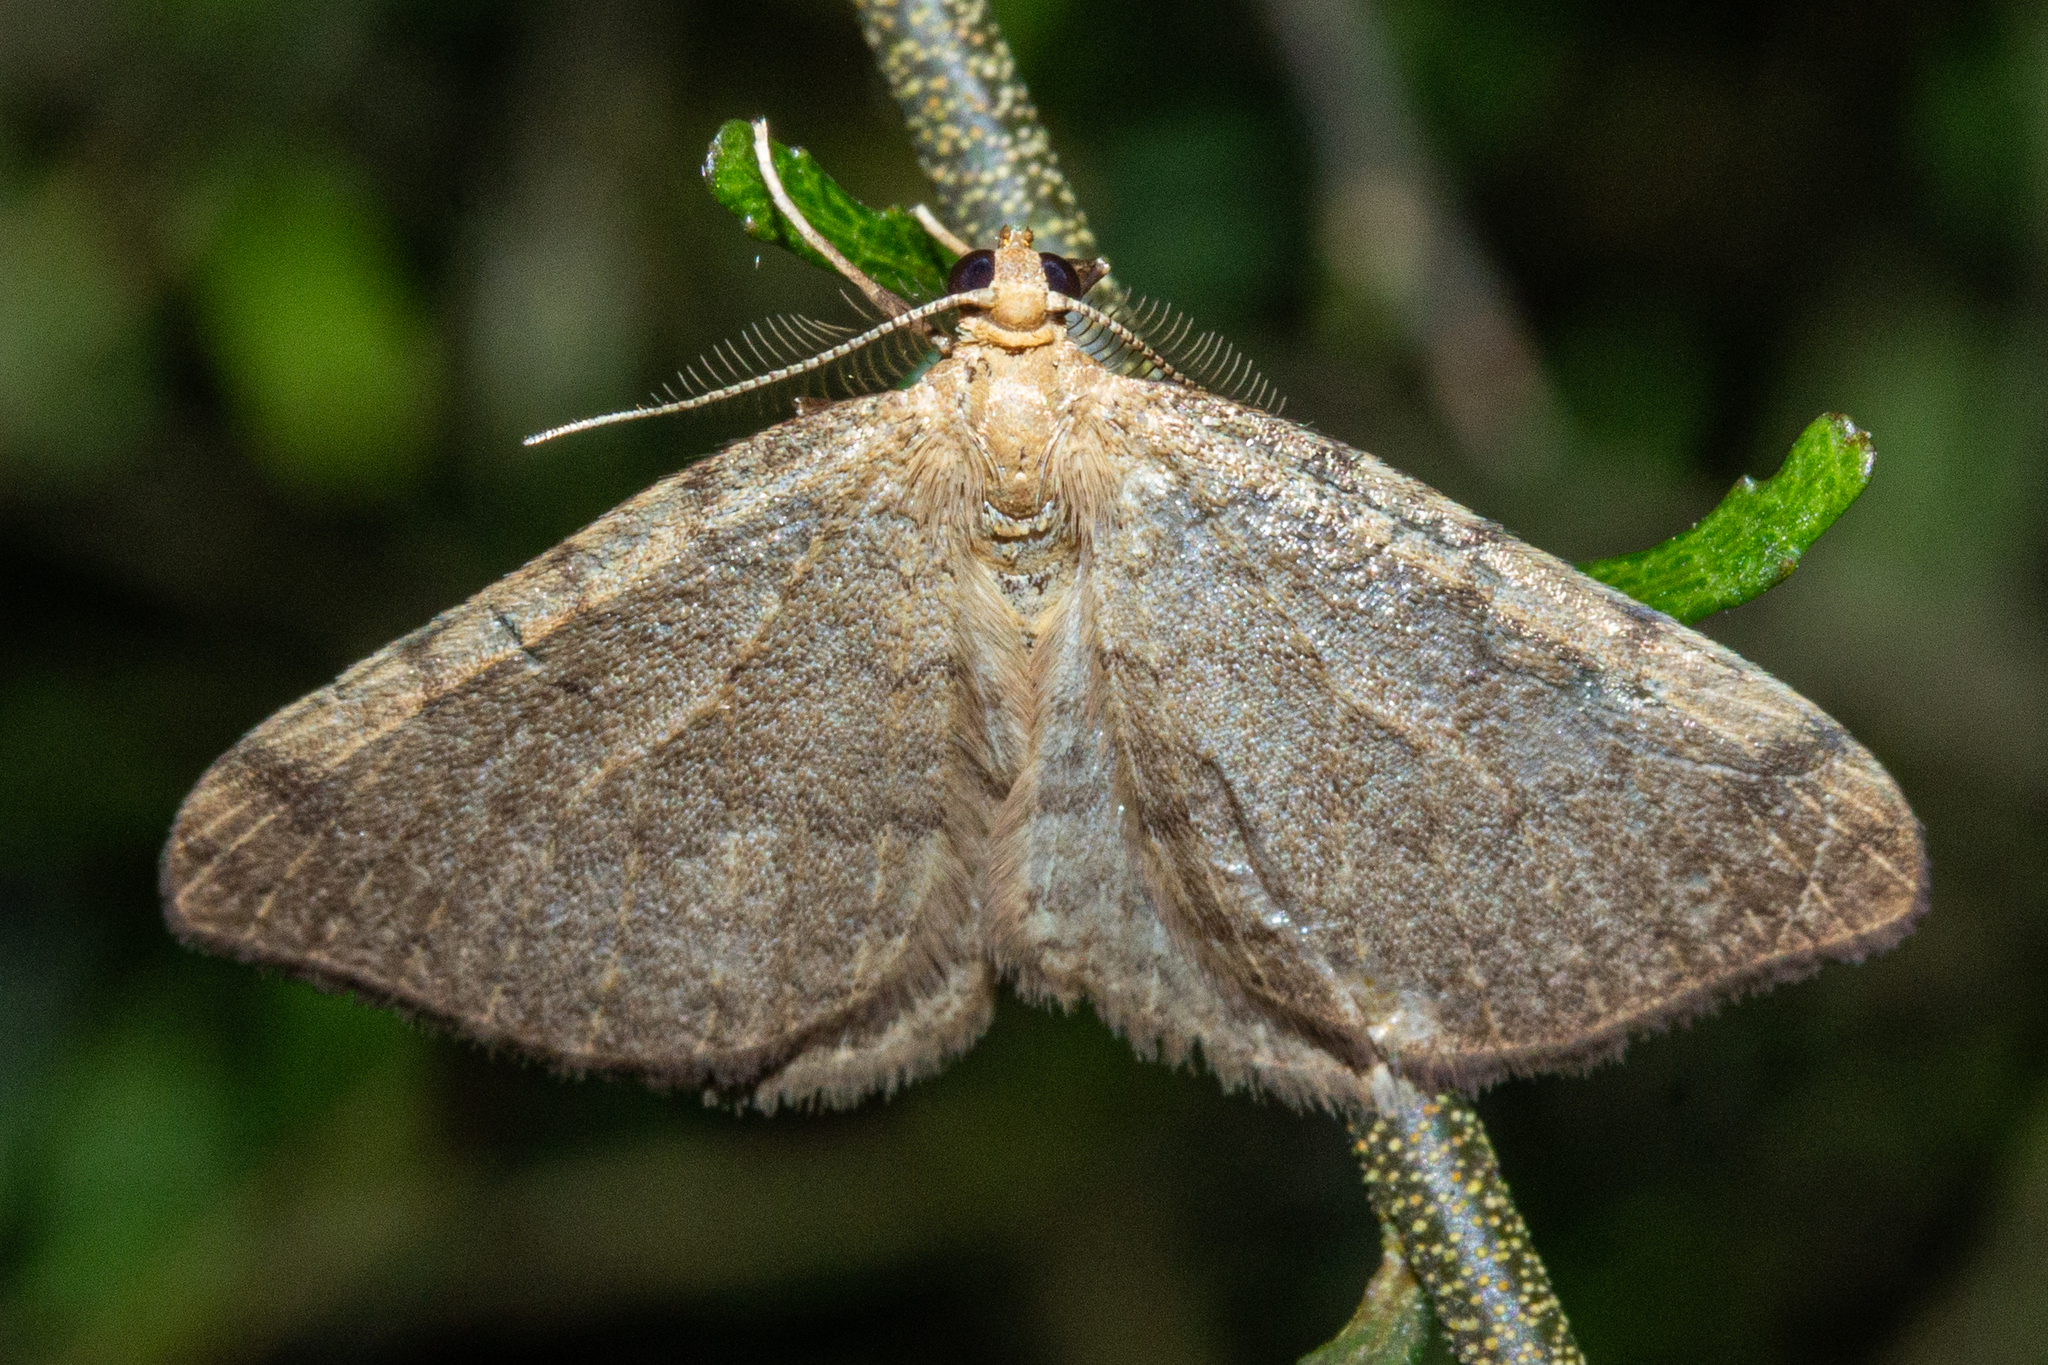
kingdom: Animalia
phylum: Arthropoda
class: Insecta
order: Lepidoptera
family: Geometridae
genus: Epiphryne
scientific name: Epiphryne undosata
